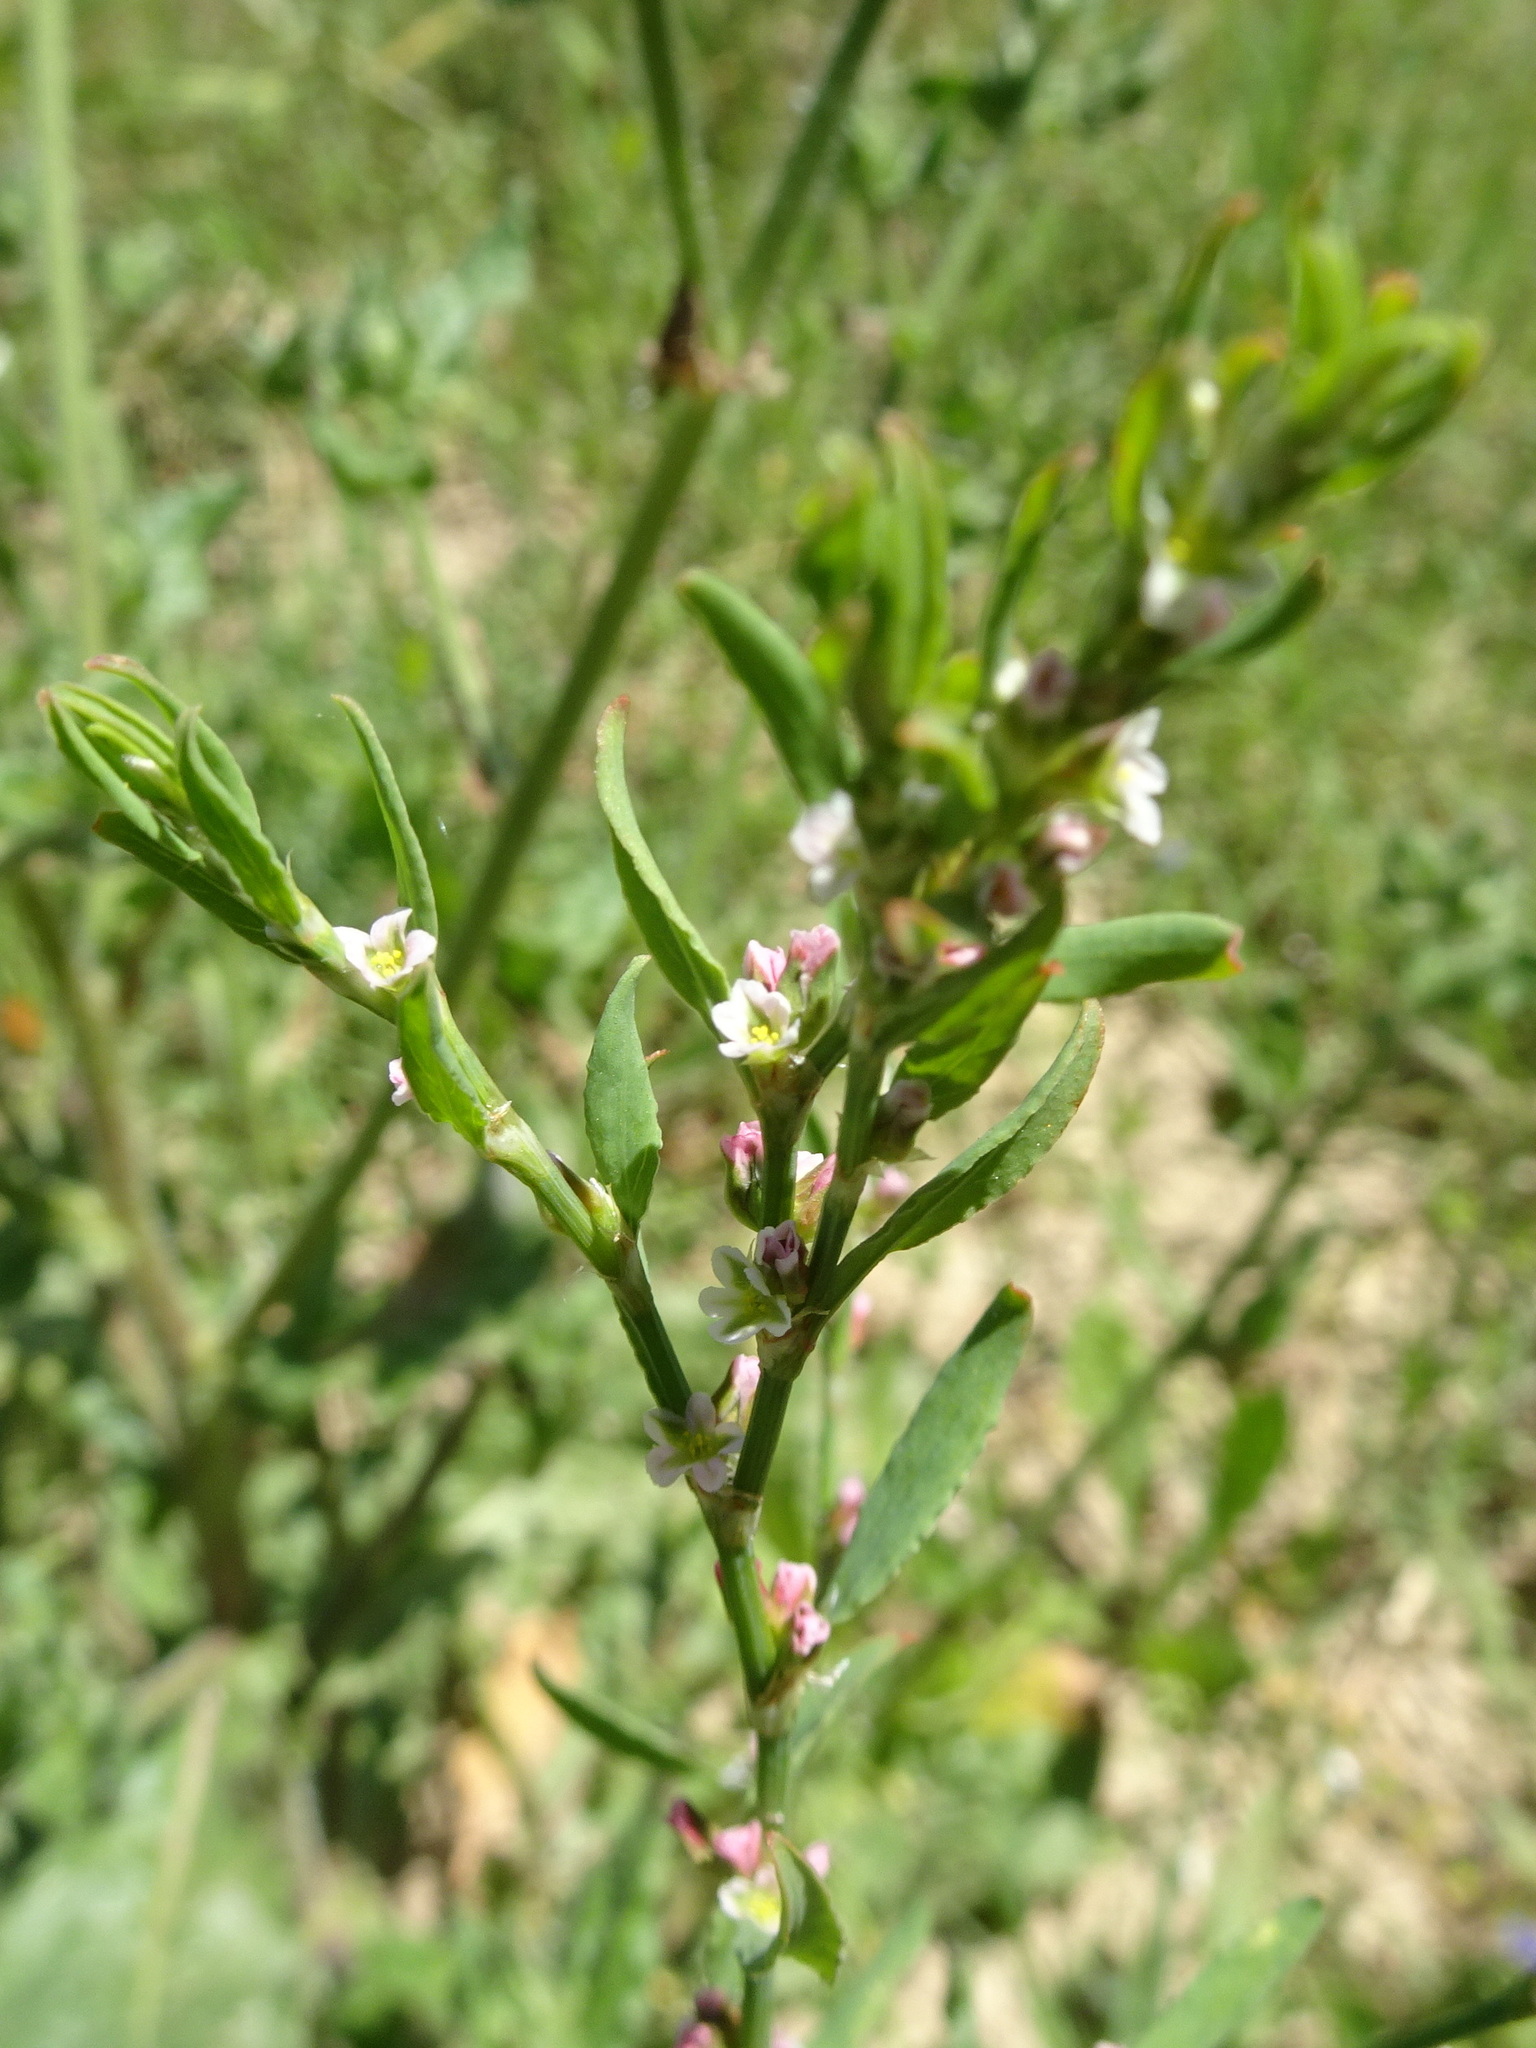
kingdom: Plantae
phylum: Tracheophyta
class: Magnoliopsida
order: Caryophyllales
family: Polygonaceae
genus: Polygonum
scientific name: Polygonum aviculare
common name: Prostrate knotweed
